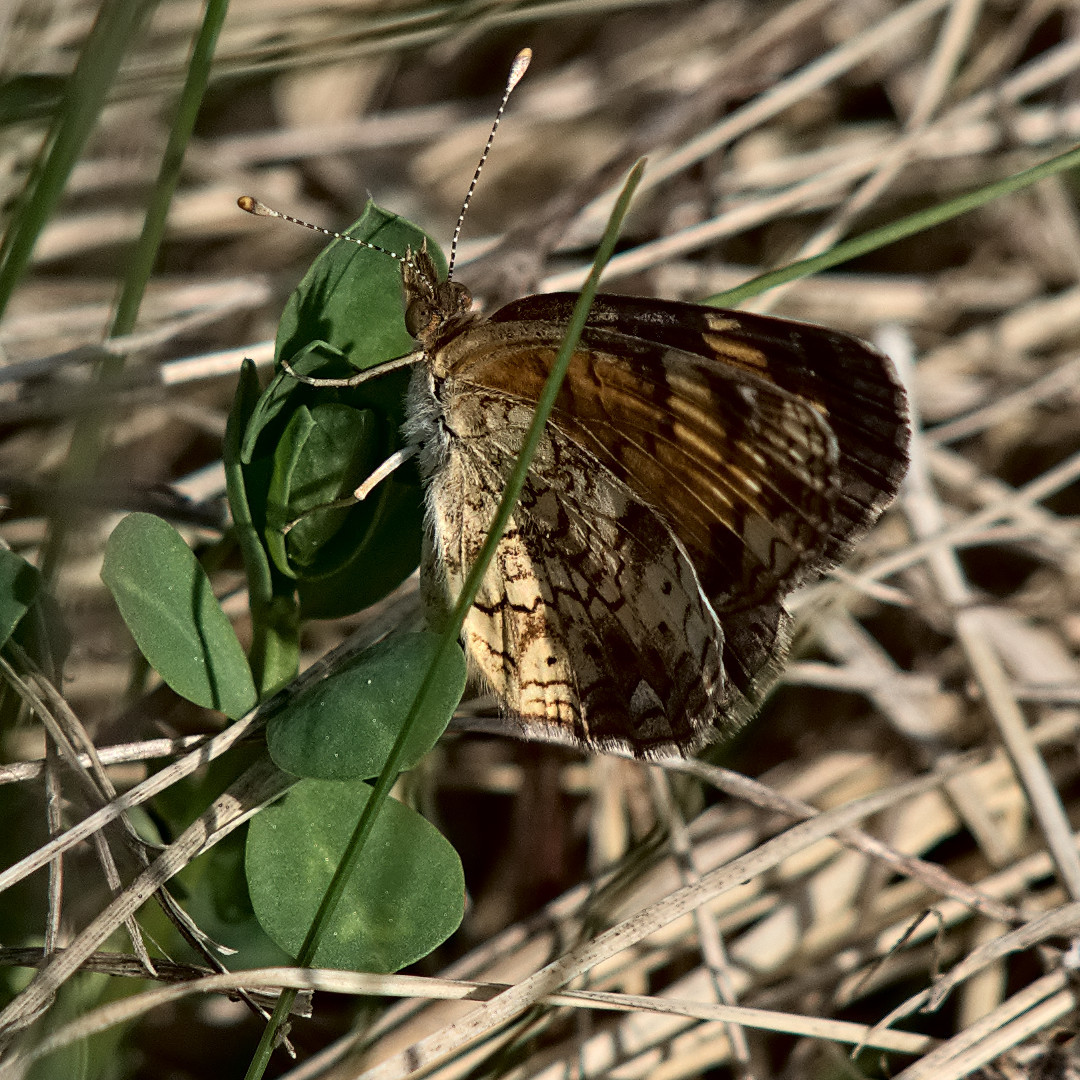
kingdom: Animalia
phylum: Arthropoda
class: Insecta
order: Lepidoptera
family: Nymphalidae
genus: Phyciodes
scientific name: Phyciodes tharos
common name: Pearl crescent
